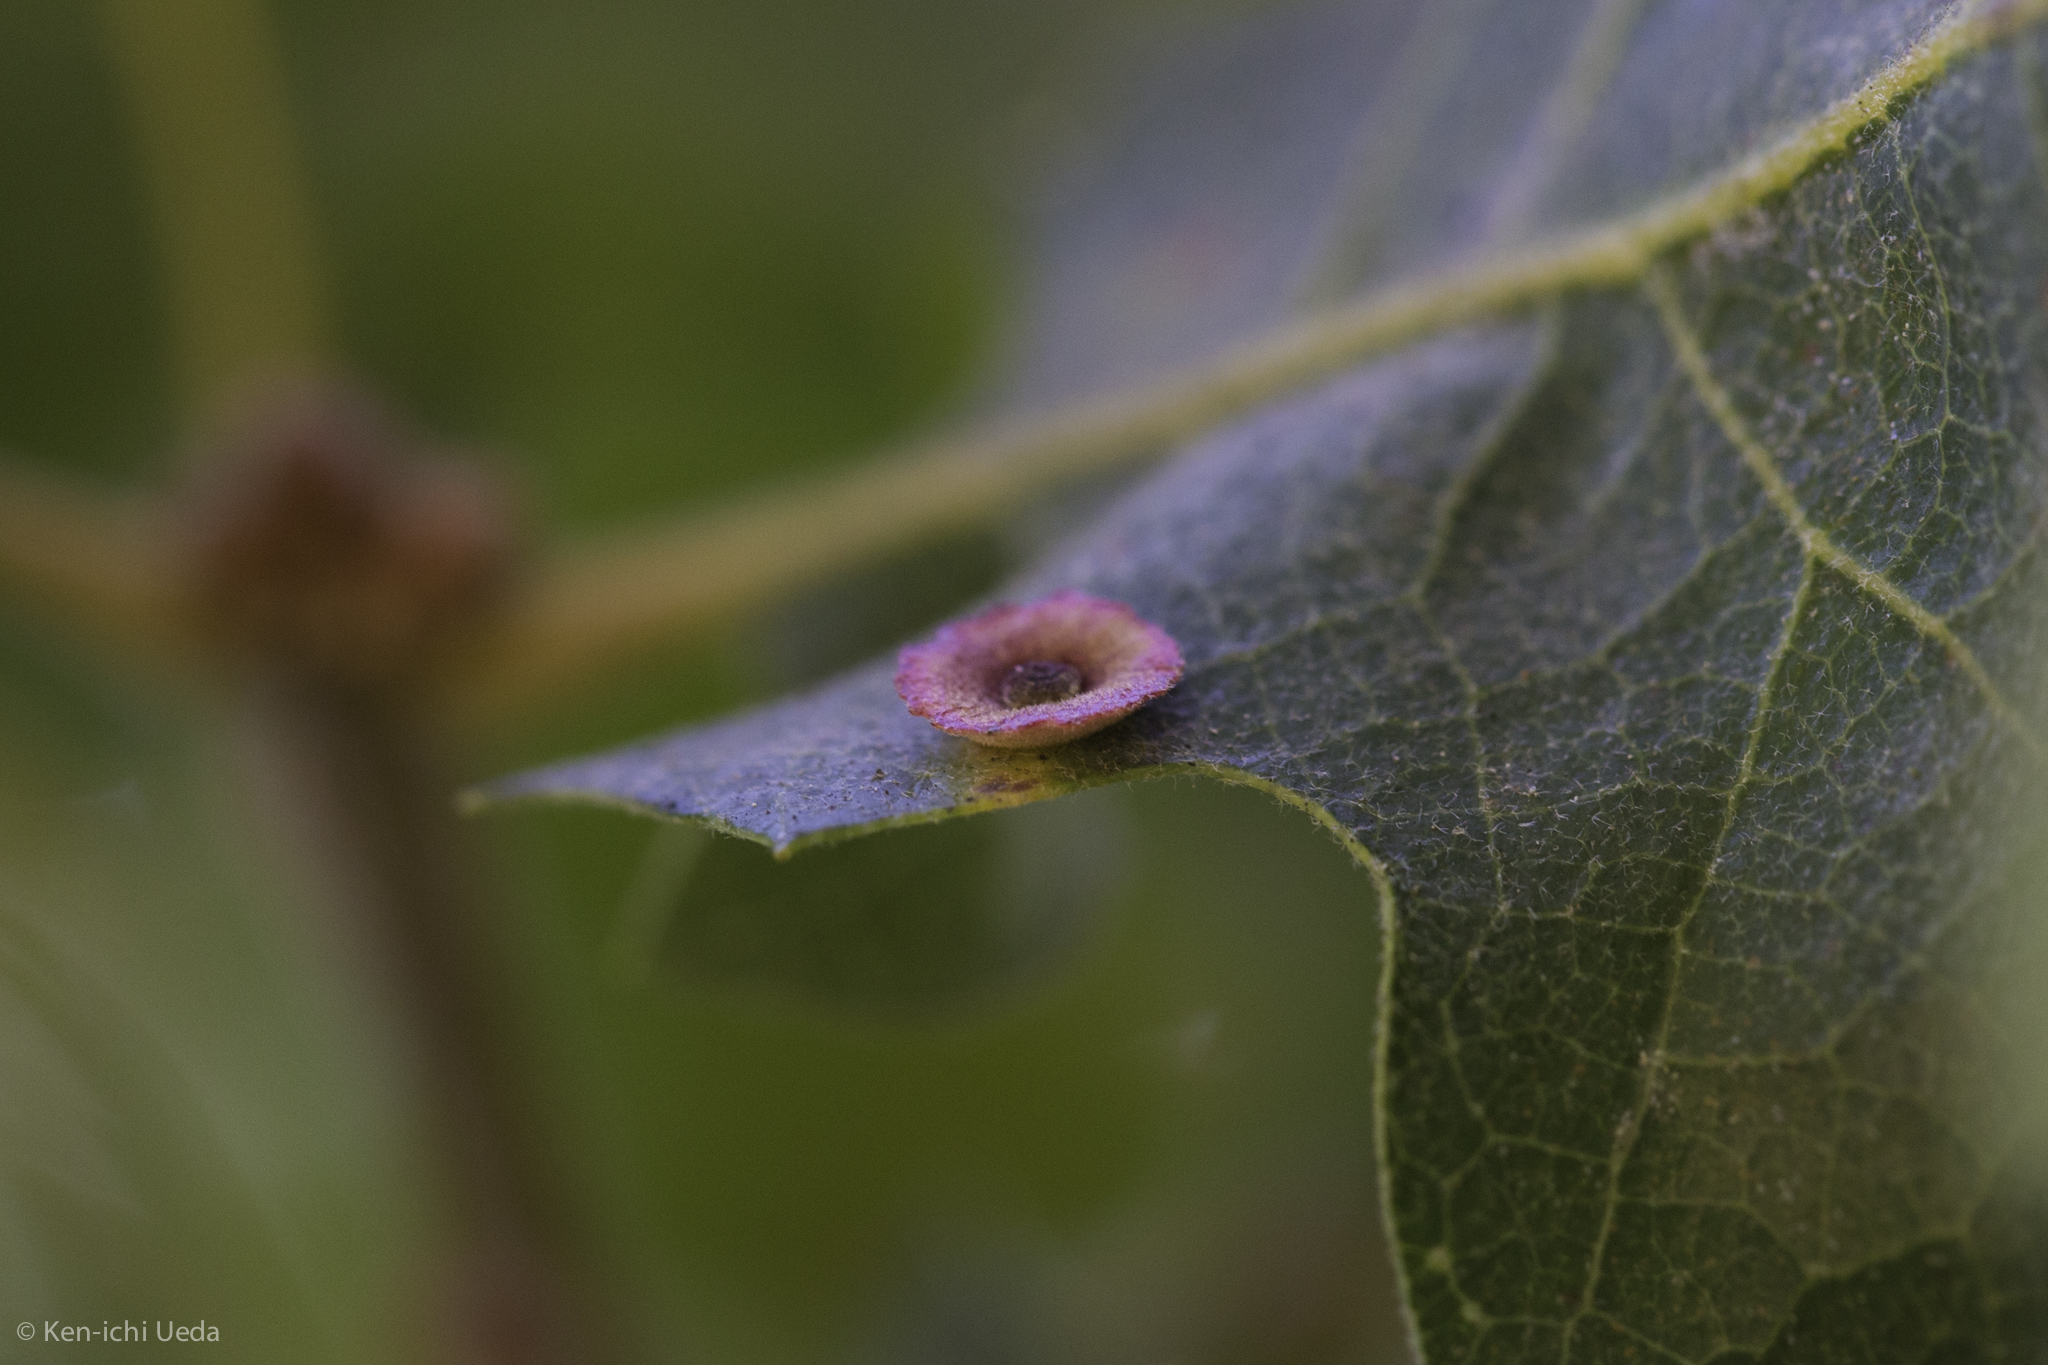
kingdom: Animalia
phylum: Arthropoda
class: Insecta
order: Hymenoptera
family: Cynipidae
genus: Andricus
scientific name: Andricus
